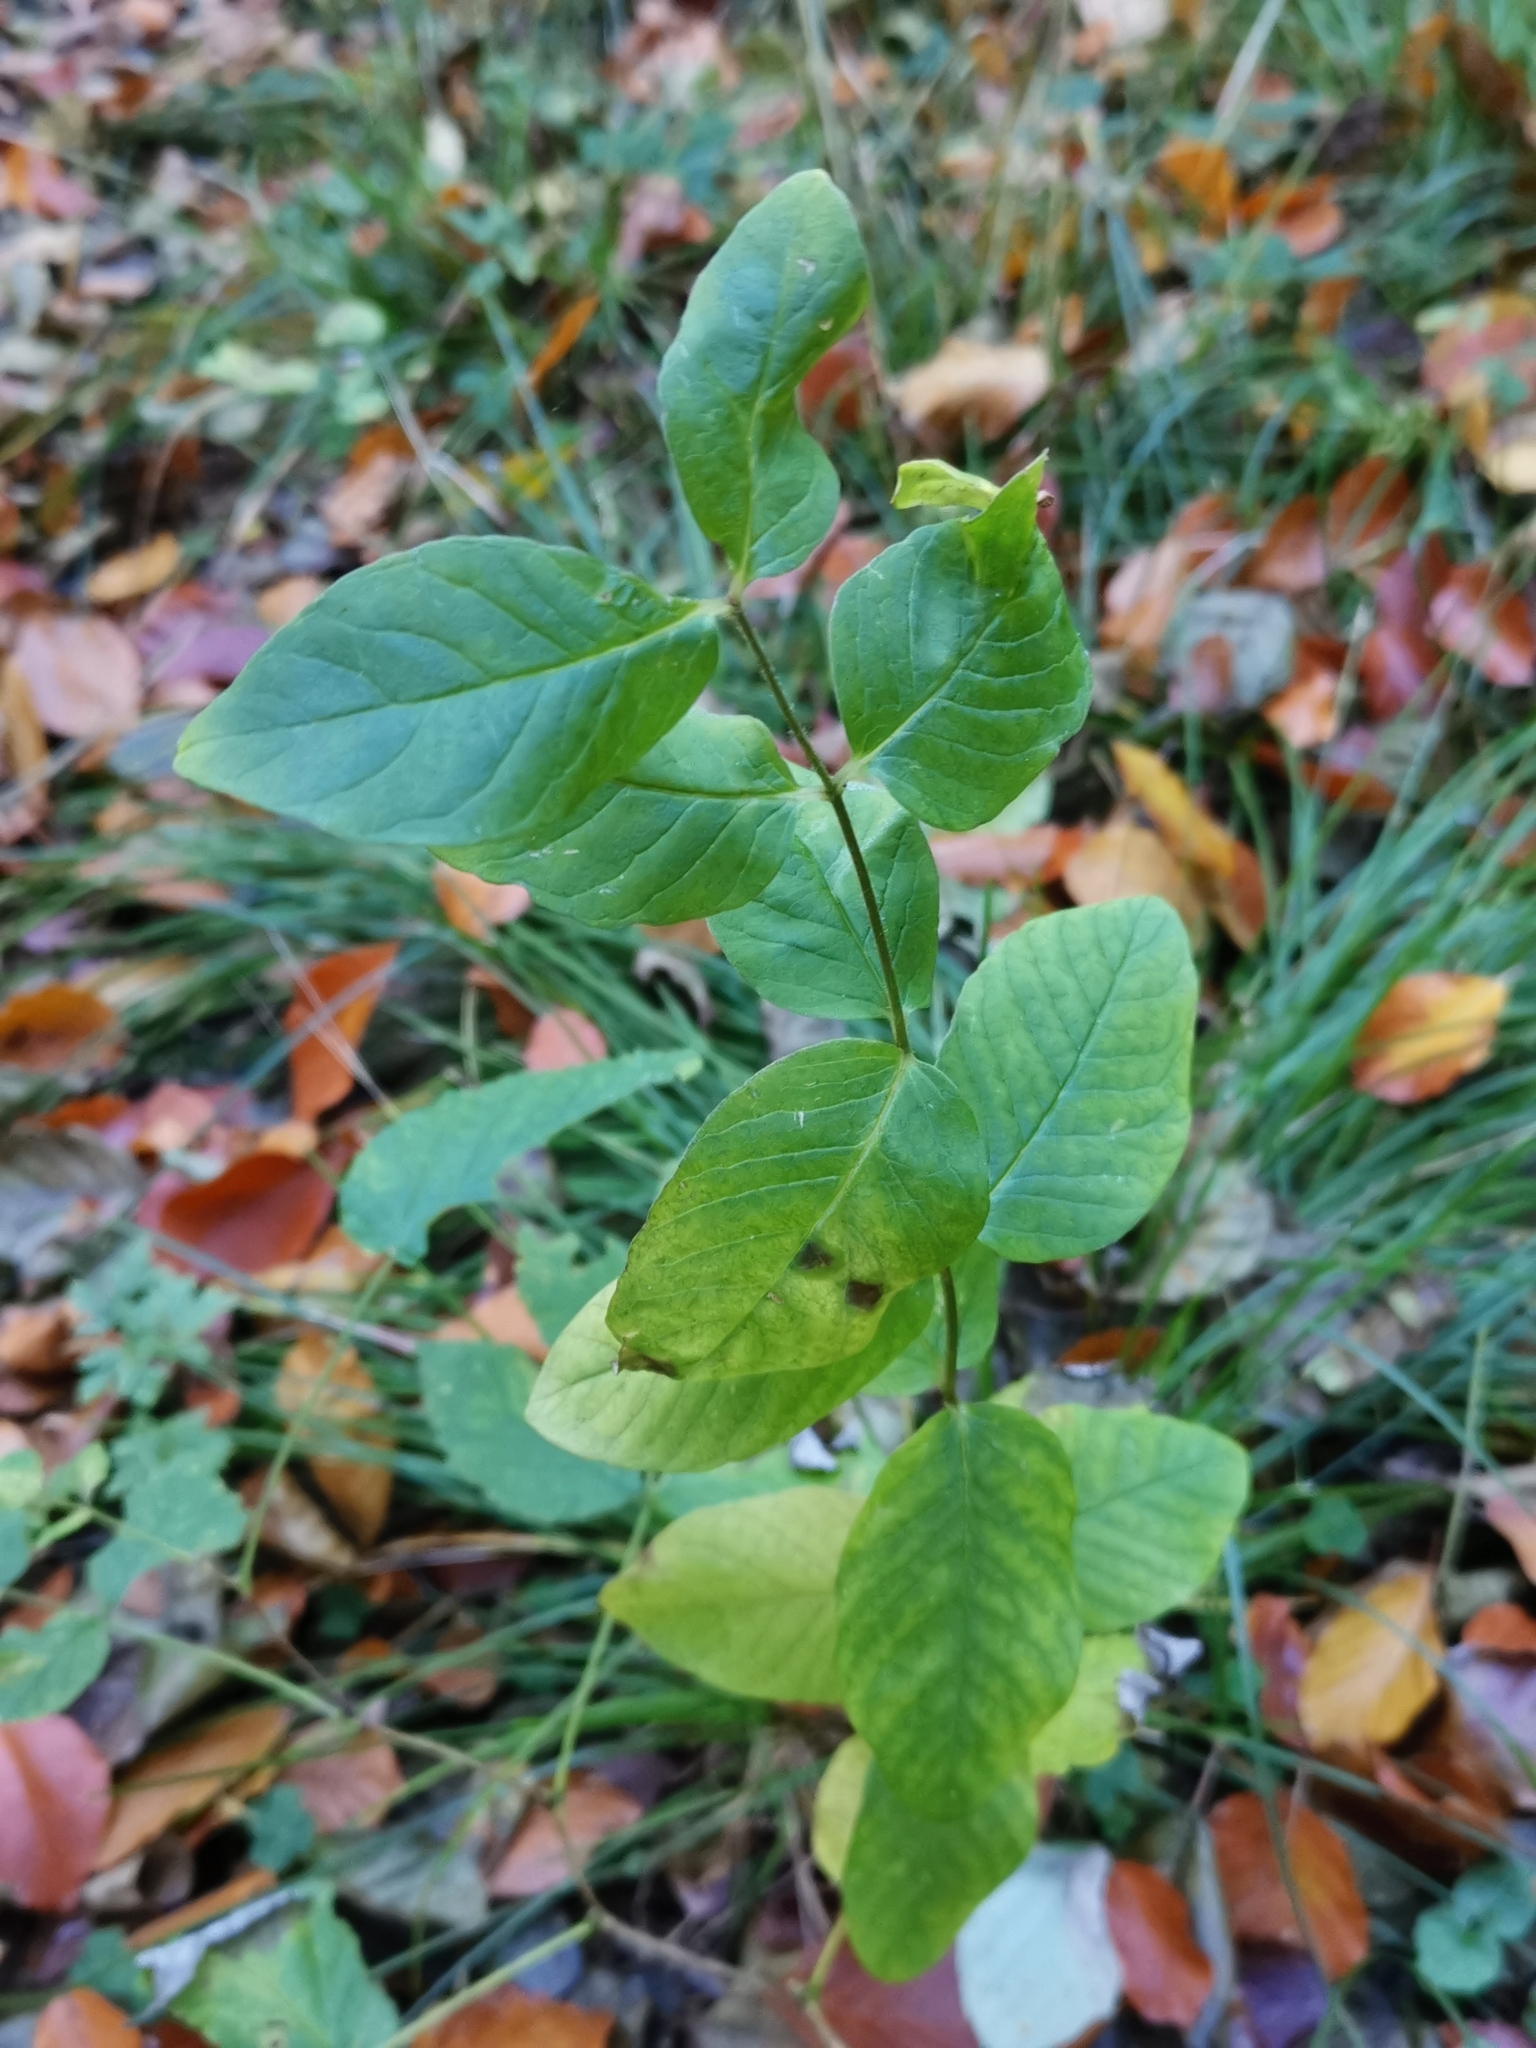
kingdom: Plantae
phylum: Tracheophyta
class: Magnoliopsida
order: Ericales
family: Primulaceae
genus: Lysimachia
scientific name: Lysimachia vulgaris
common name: Yellow loosestrife
